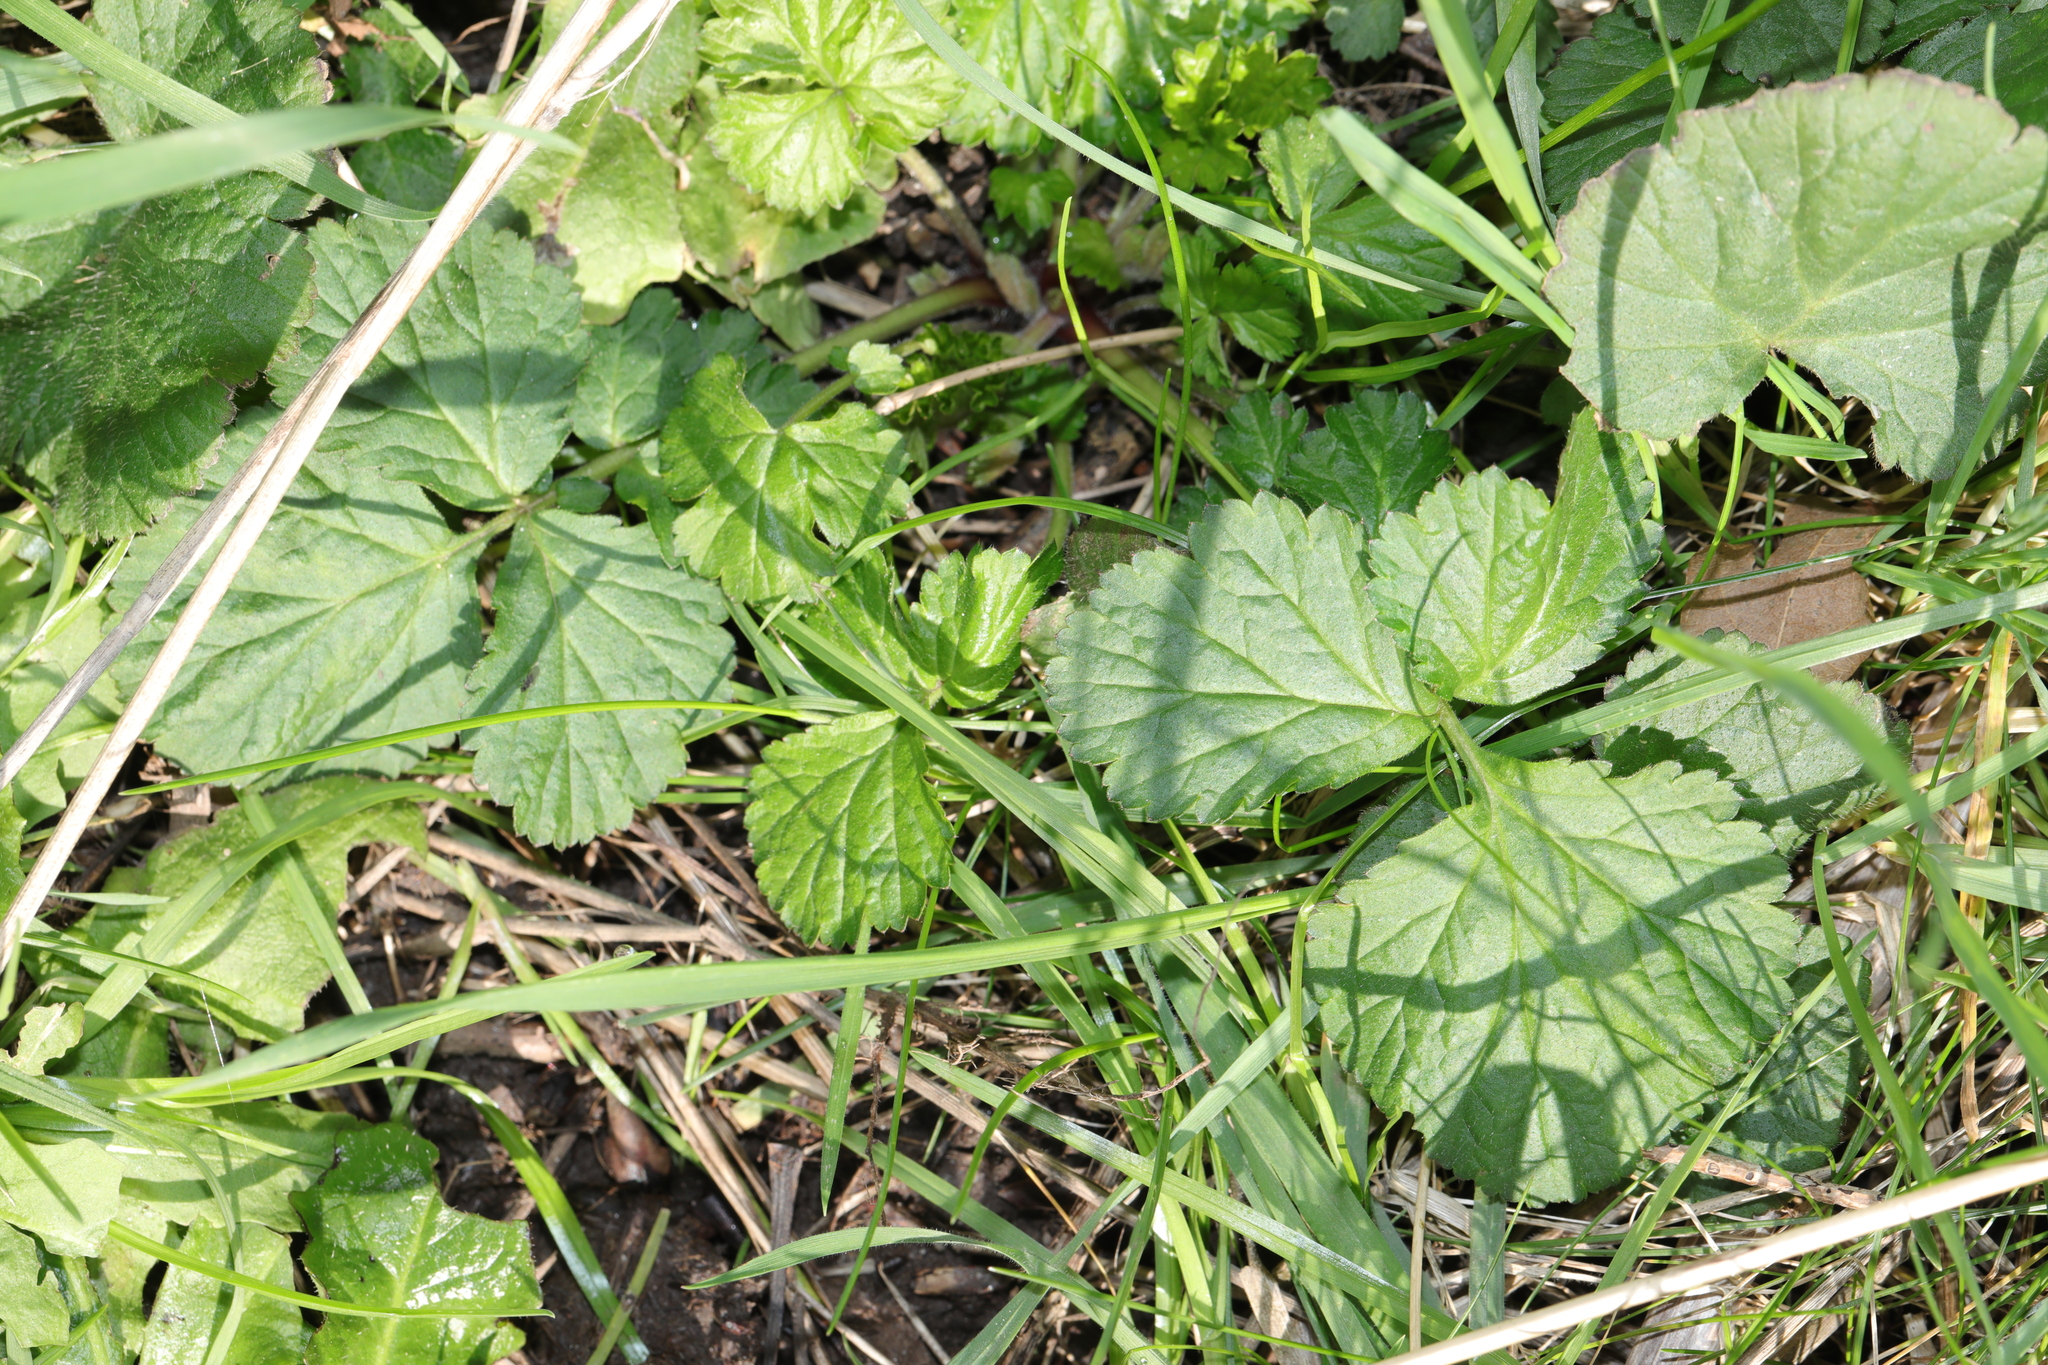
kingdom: Plantae
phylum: Tracheophyta
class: Magnoliopsida
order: Rosales
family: Rosaceae
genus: Geum
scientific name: Geum urbanum
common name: Wood avens
